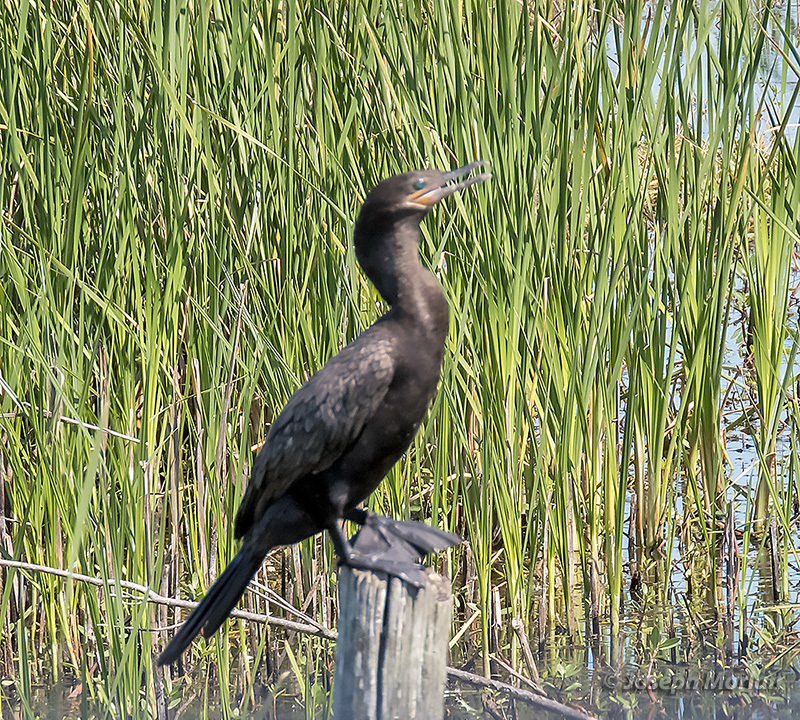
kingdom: Animalia
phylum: Chordata
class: Aves
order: Suliformes
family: Phalacrocoracidae
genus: Phalacrocorax
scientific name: Phalacrocorax brasilianus
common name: Neotropic cormorant
